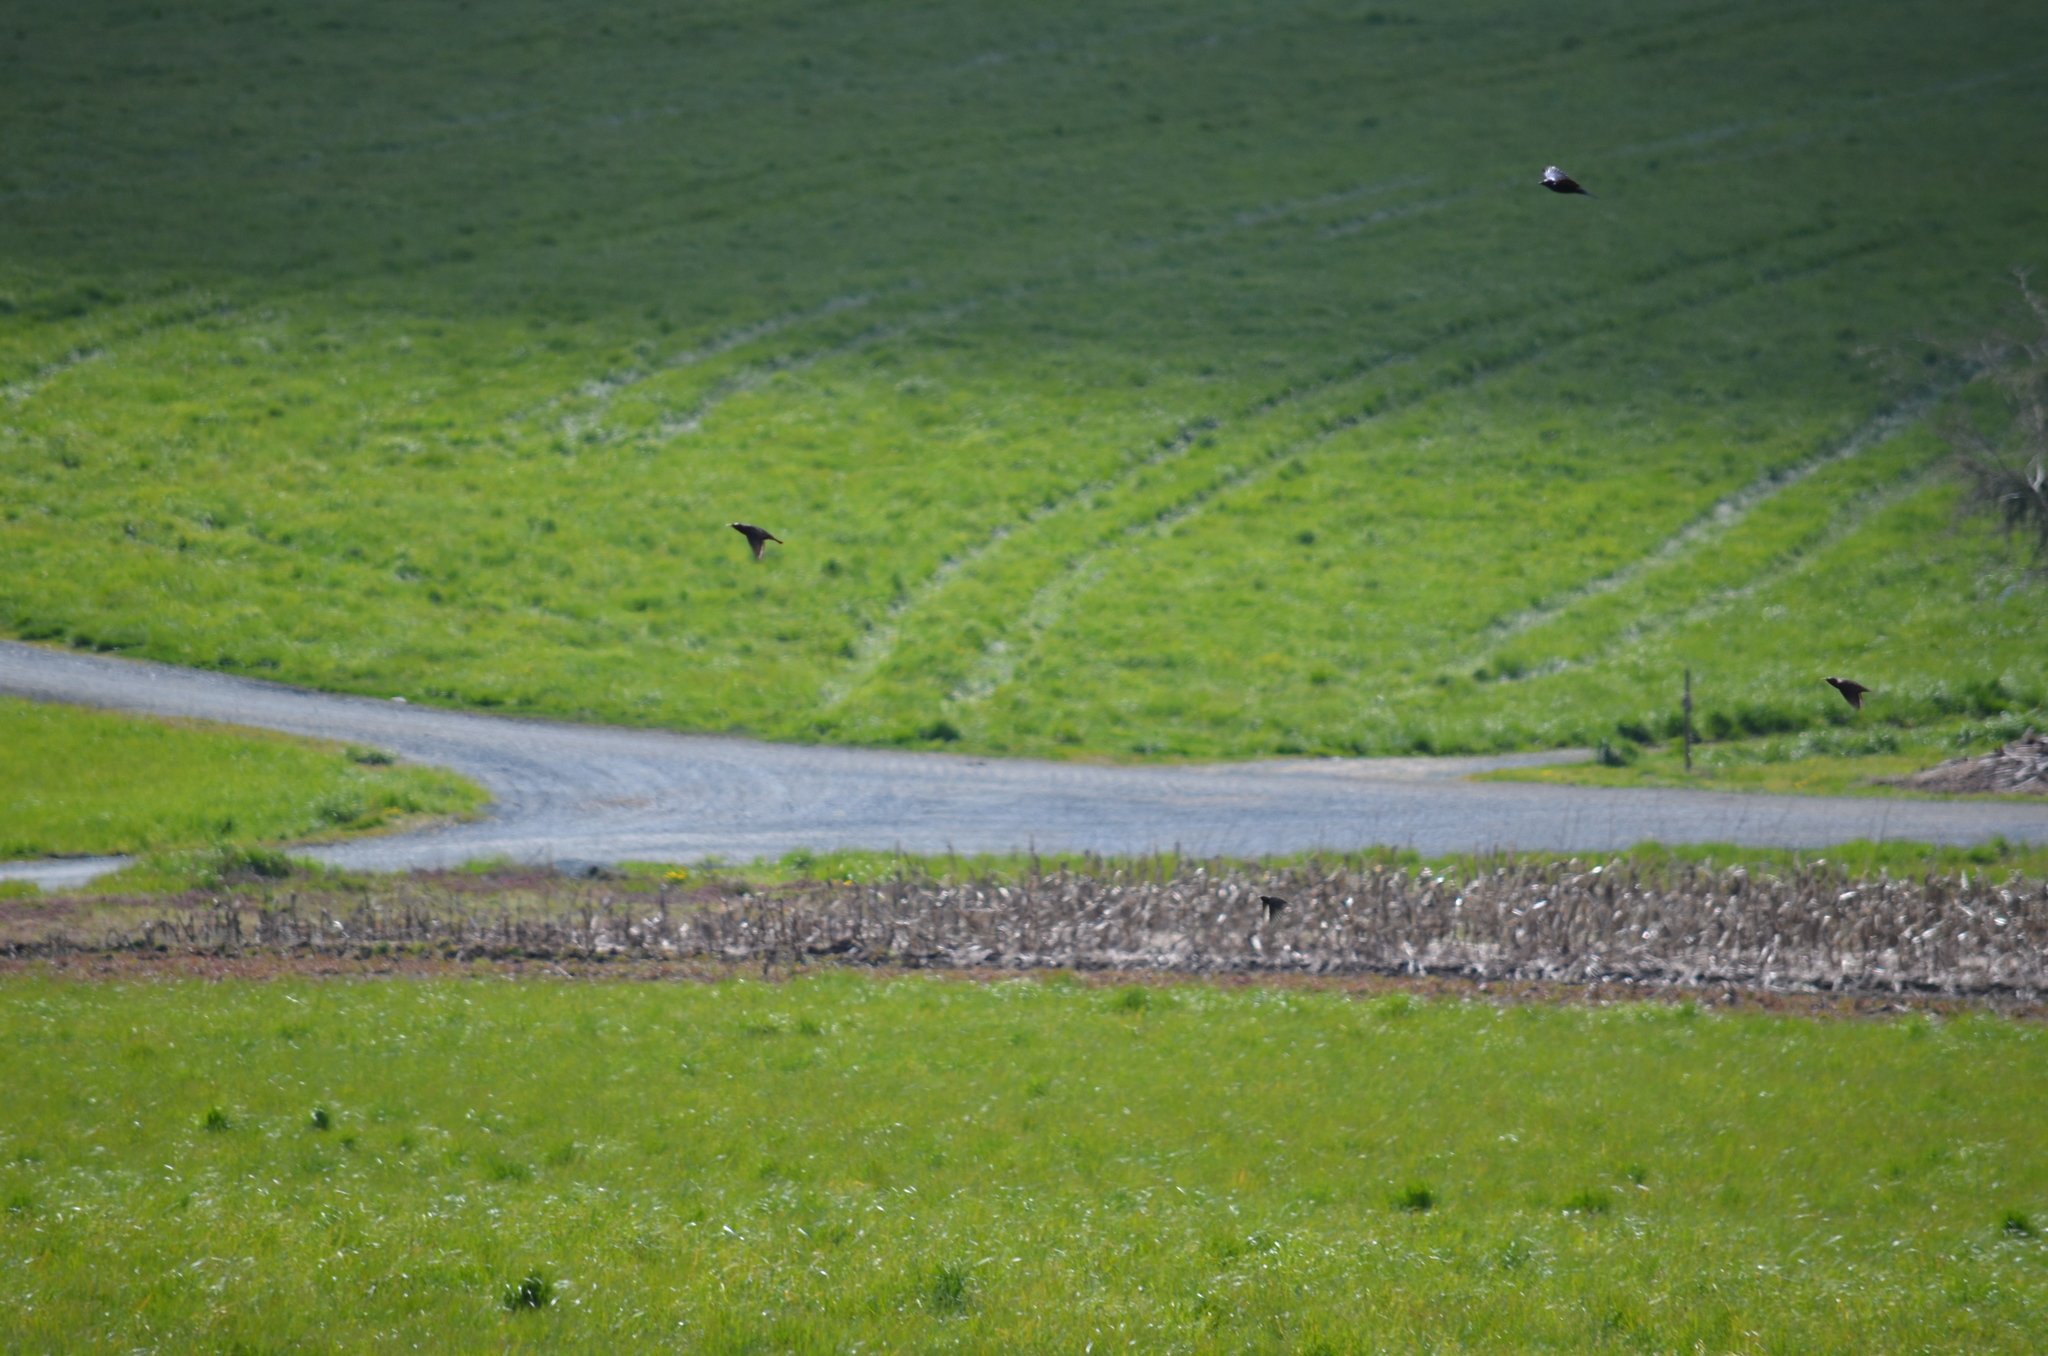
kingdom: Animalia
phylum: Chordata
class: Aves
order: Passeriformes
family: Sturnidae
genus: Sturnus
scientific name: Sturnus vulgaris
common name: Common starling
